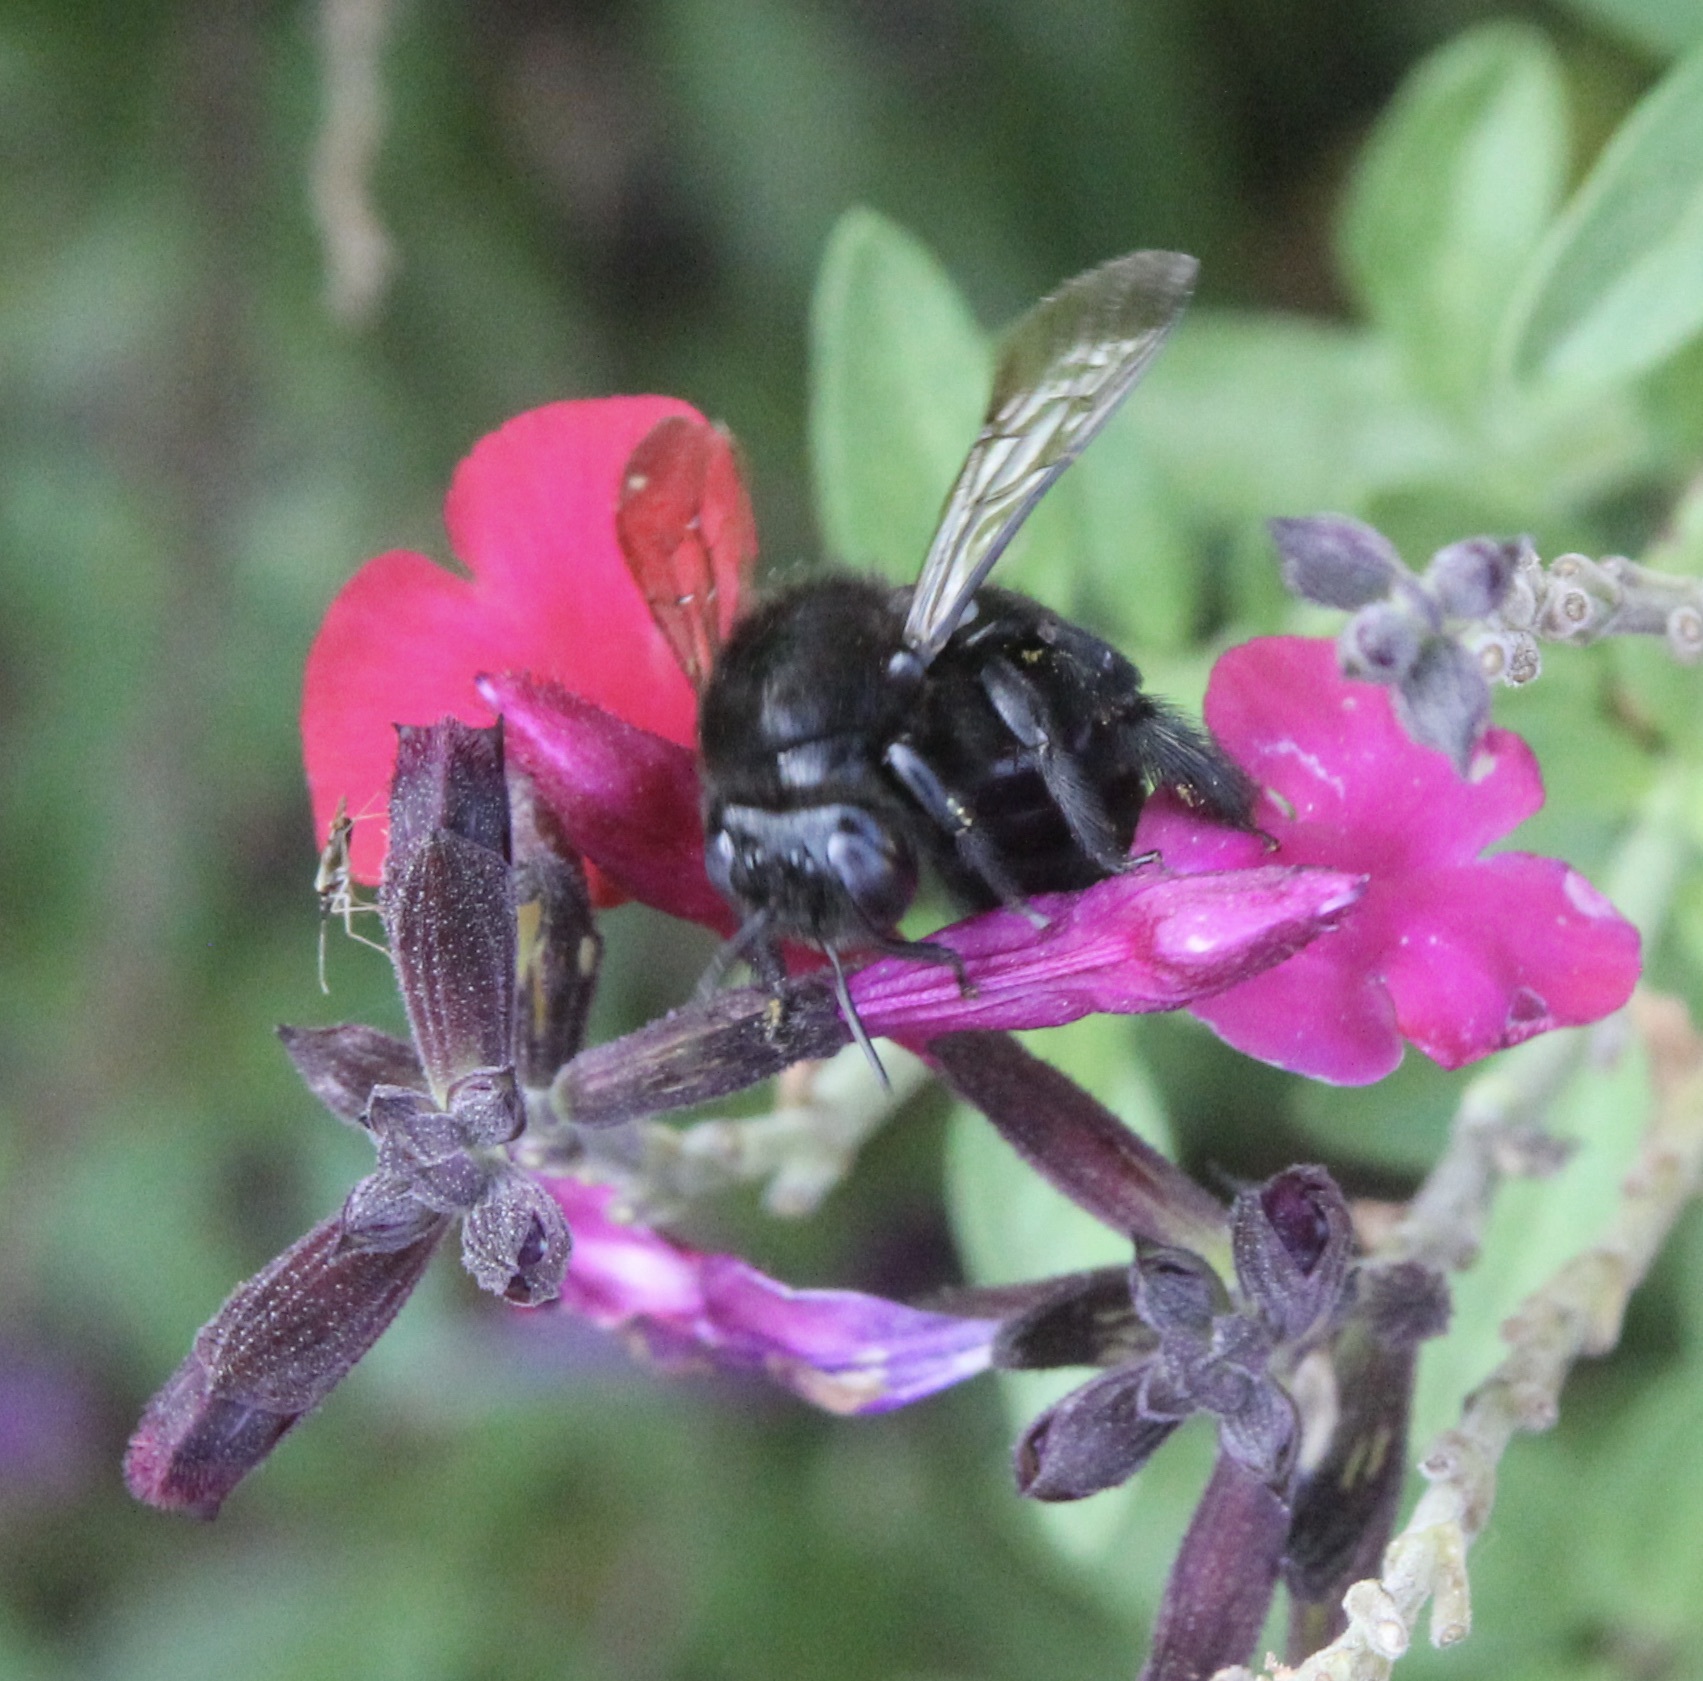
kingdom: Animalia
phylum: Arthropoda
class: Insecta
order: Hymenoptera
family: Apidae
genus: Xylocopa
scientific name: Xylocopa tabaniformis
